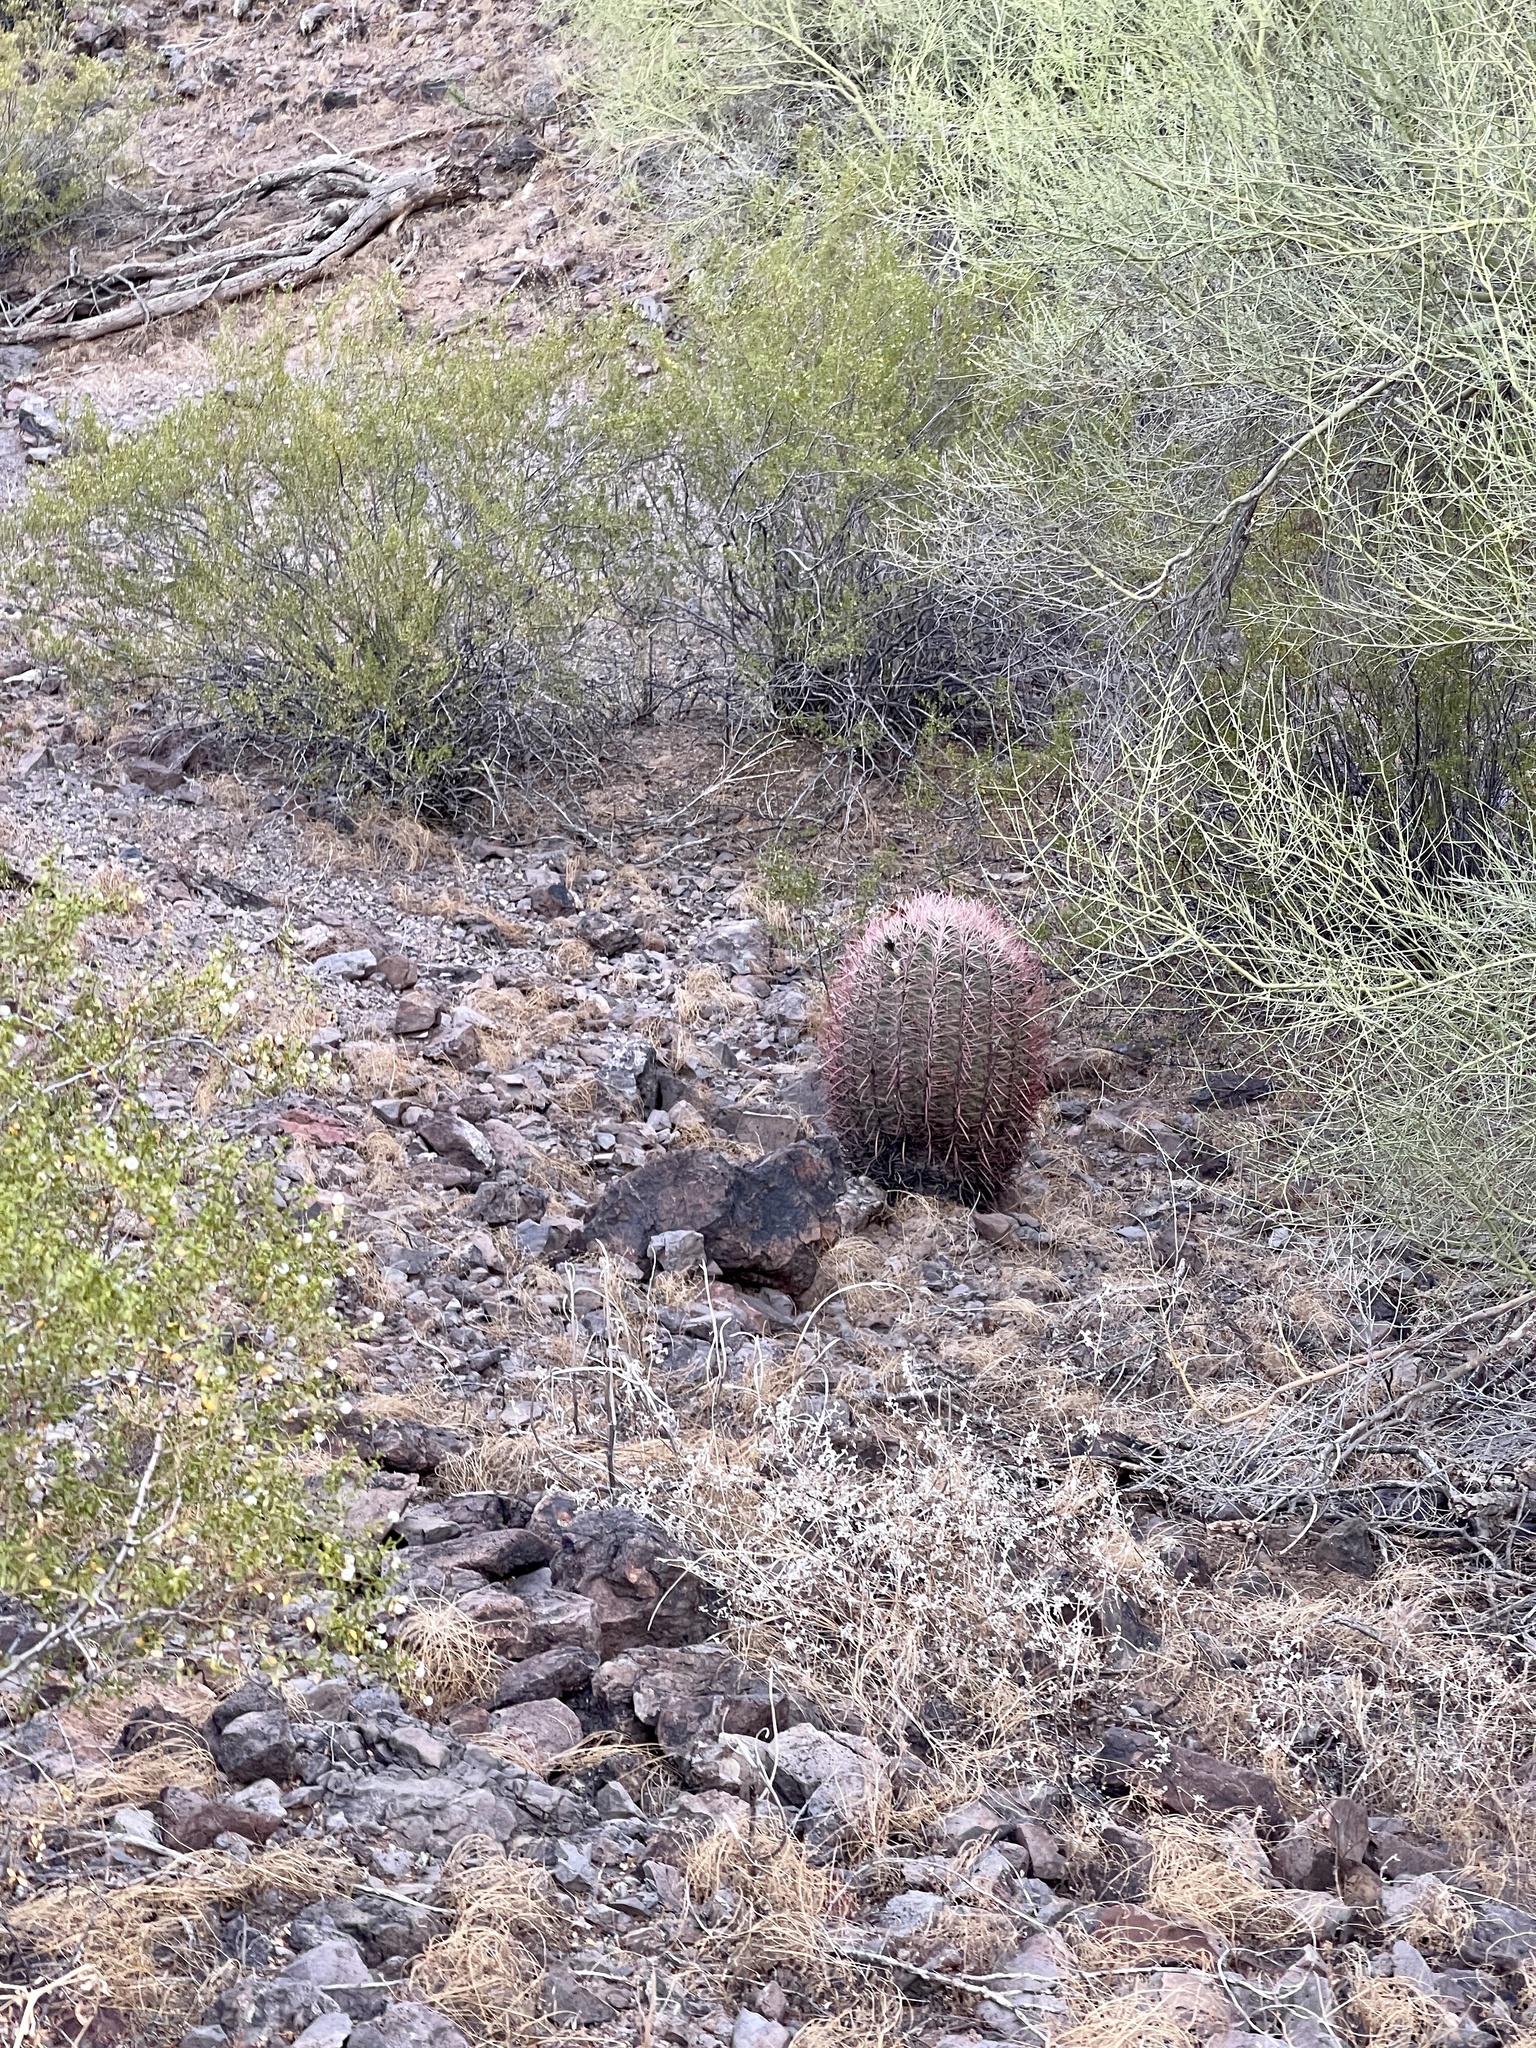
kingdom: Plantae
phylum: Tracheophyta
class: Magnoliopsida
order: Caryophyllales
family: Cactaceae
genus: Ferocactus
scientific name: Ferocactus cylindraceus
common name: California barrel cactus
